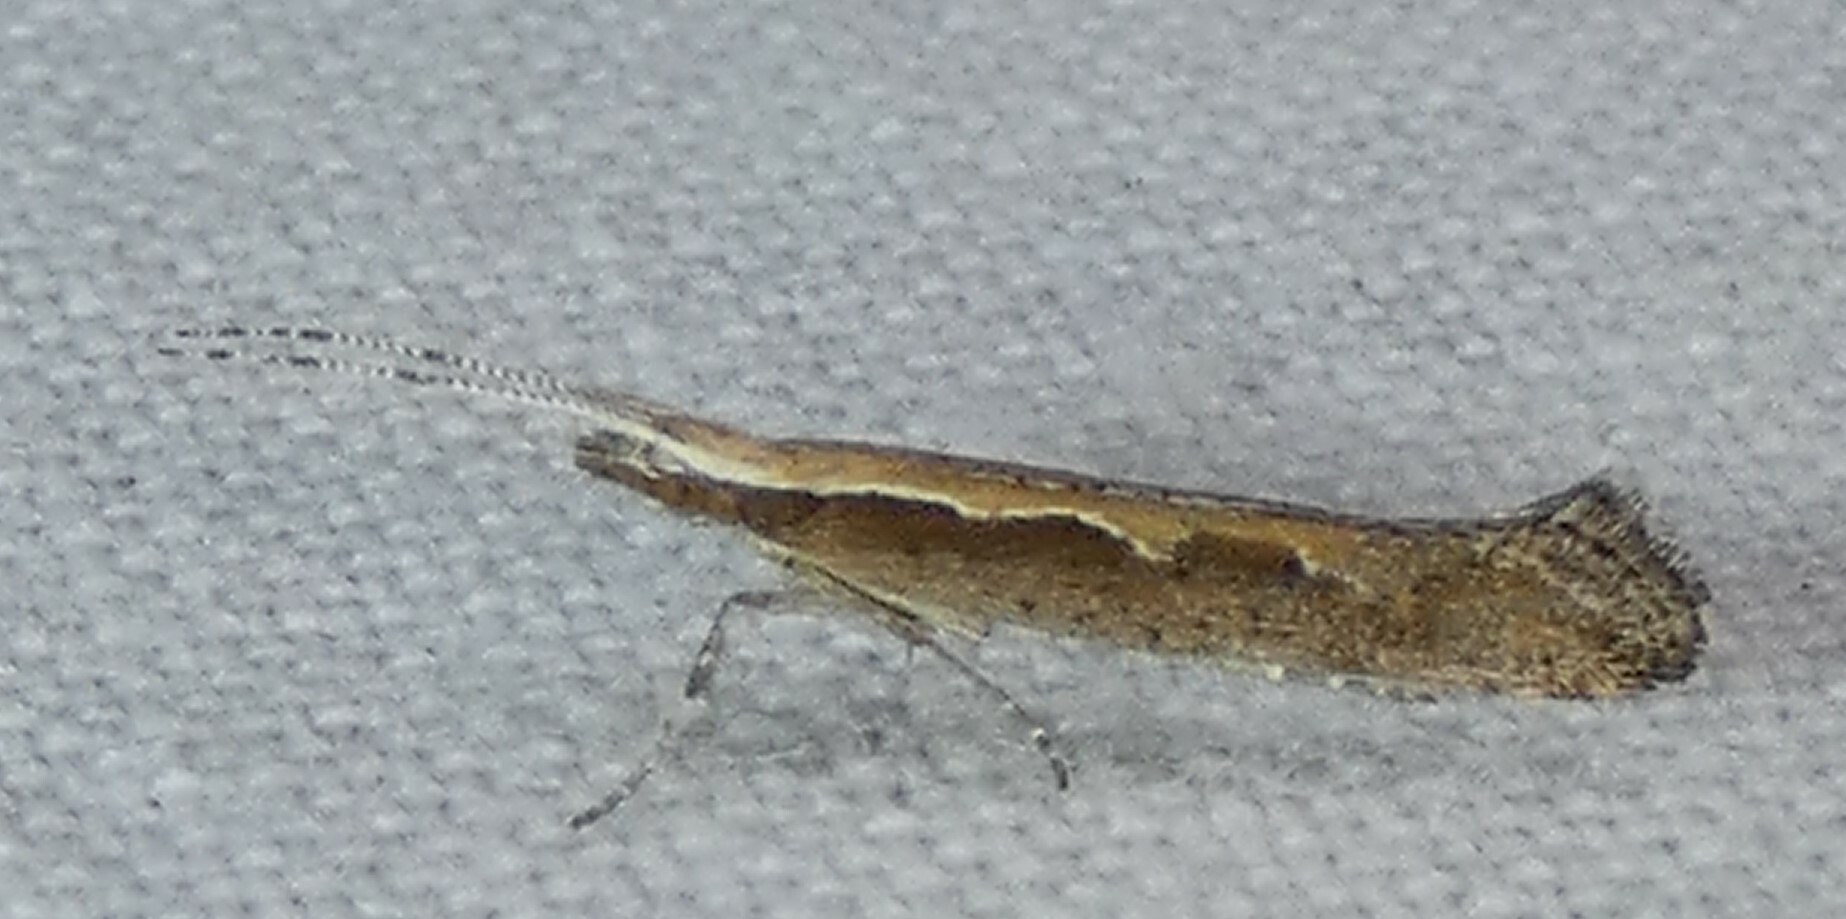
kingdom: Animalia
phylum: Arthropoda
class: Insecta
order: Lepidoptera
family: Plutellidae
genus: Plutella
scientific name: Plutella xylostella
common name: Diamond-back moth
